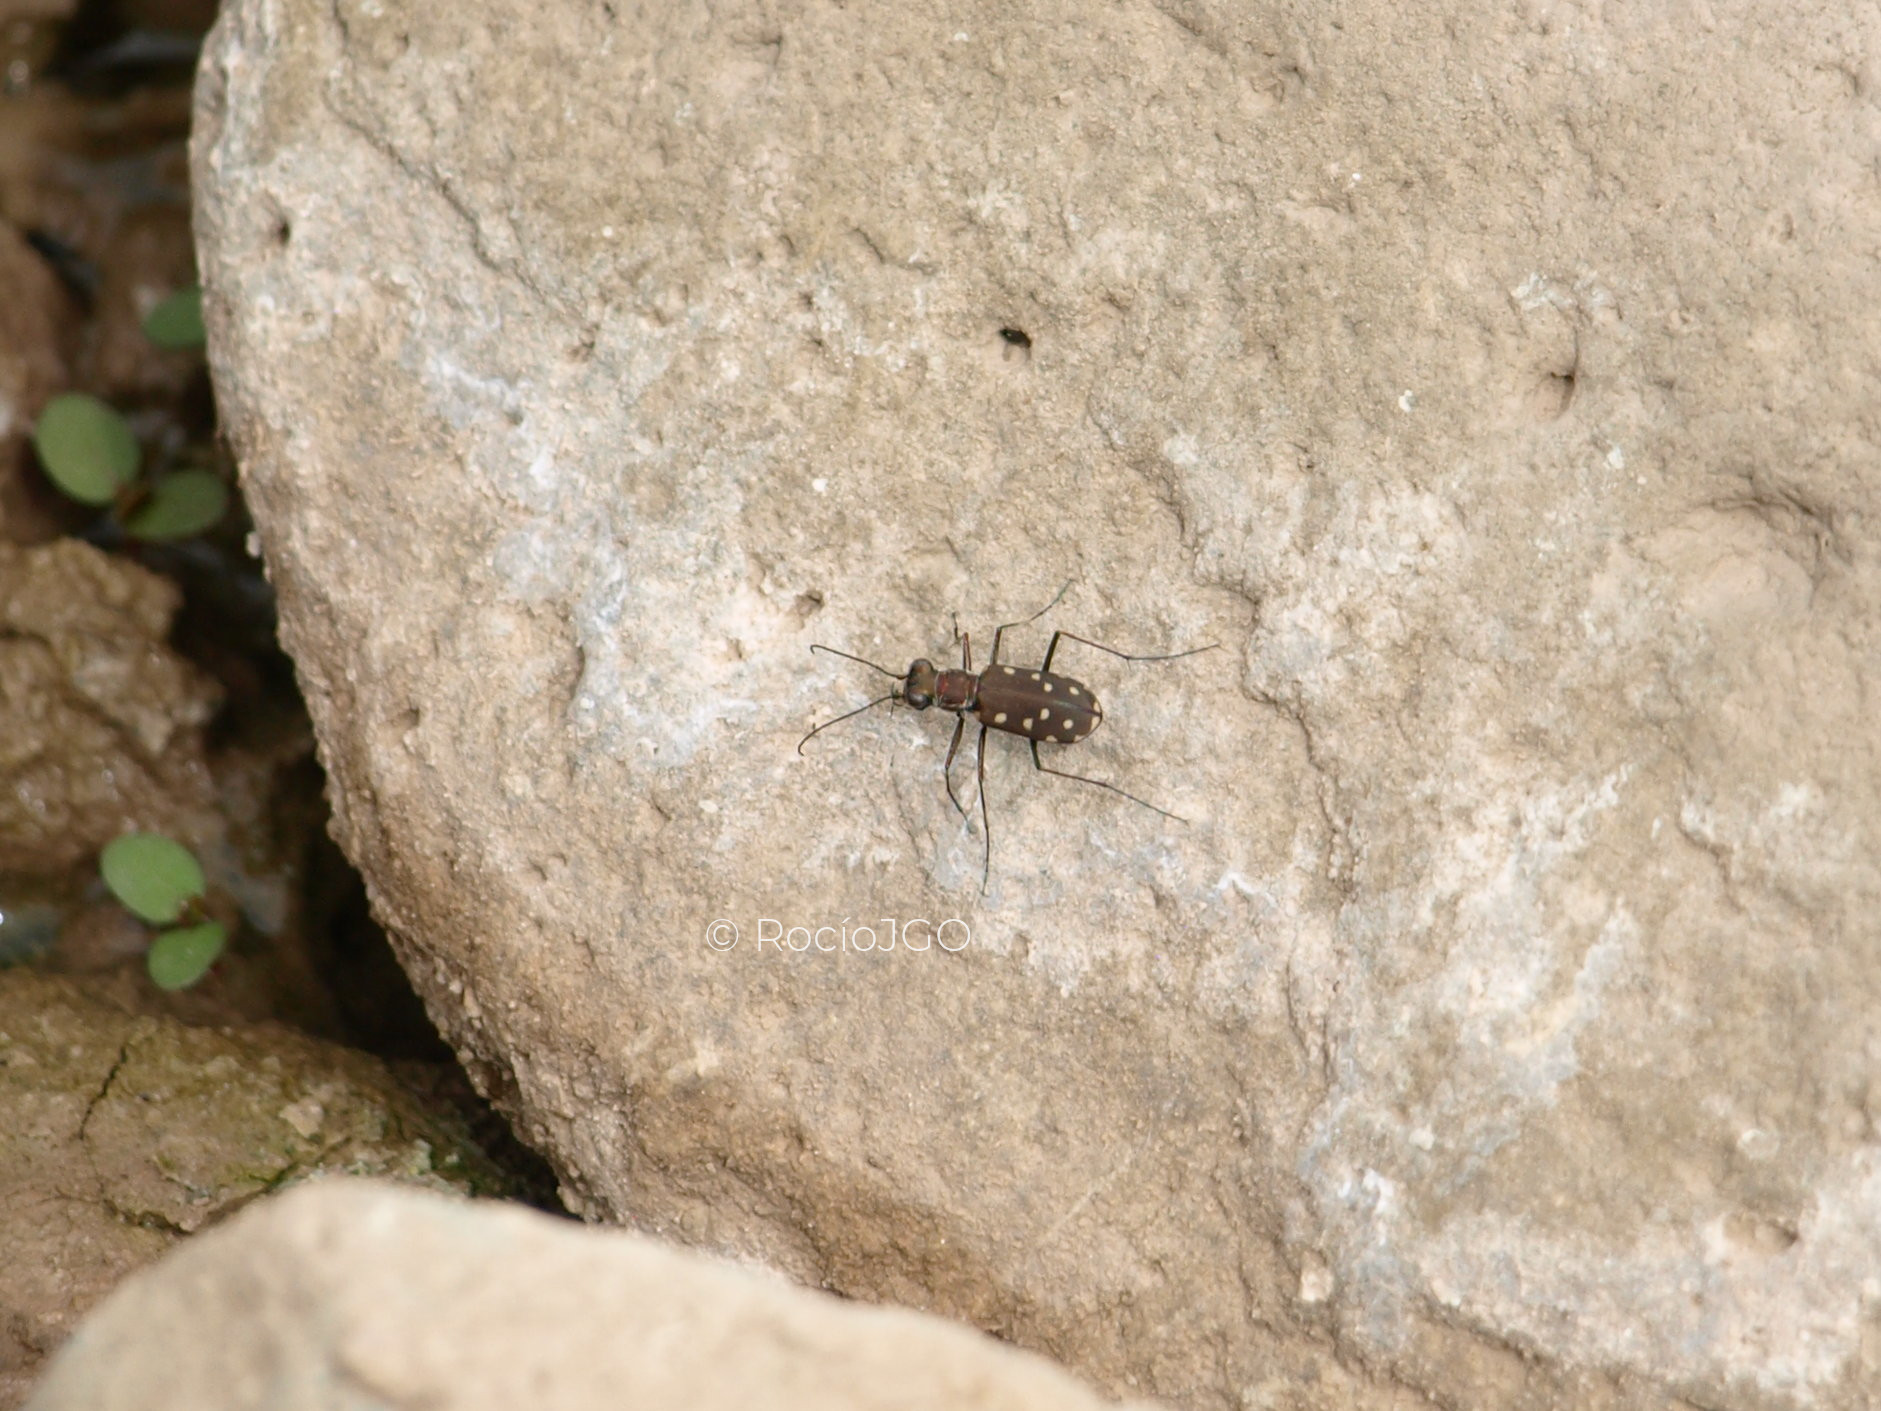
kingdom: Animalia
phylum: Arthropoda
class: Insecta
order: Coleoptera
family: Carabidae
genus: Cicindela
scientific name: Cicindela sedecimpunctata
